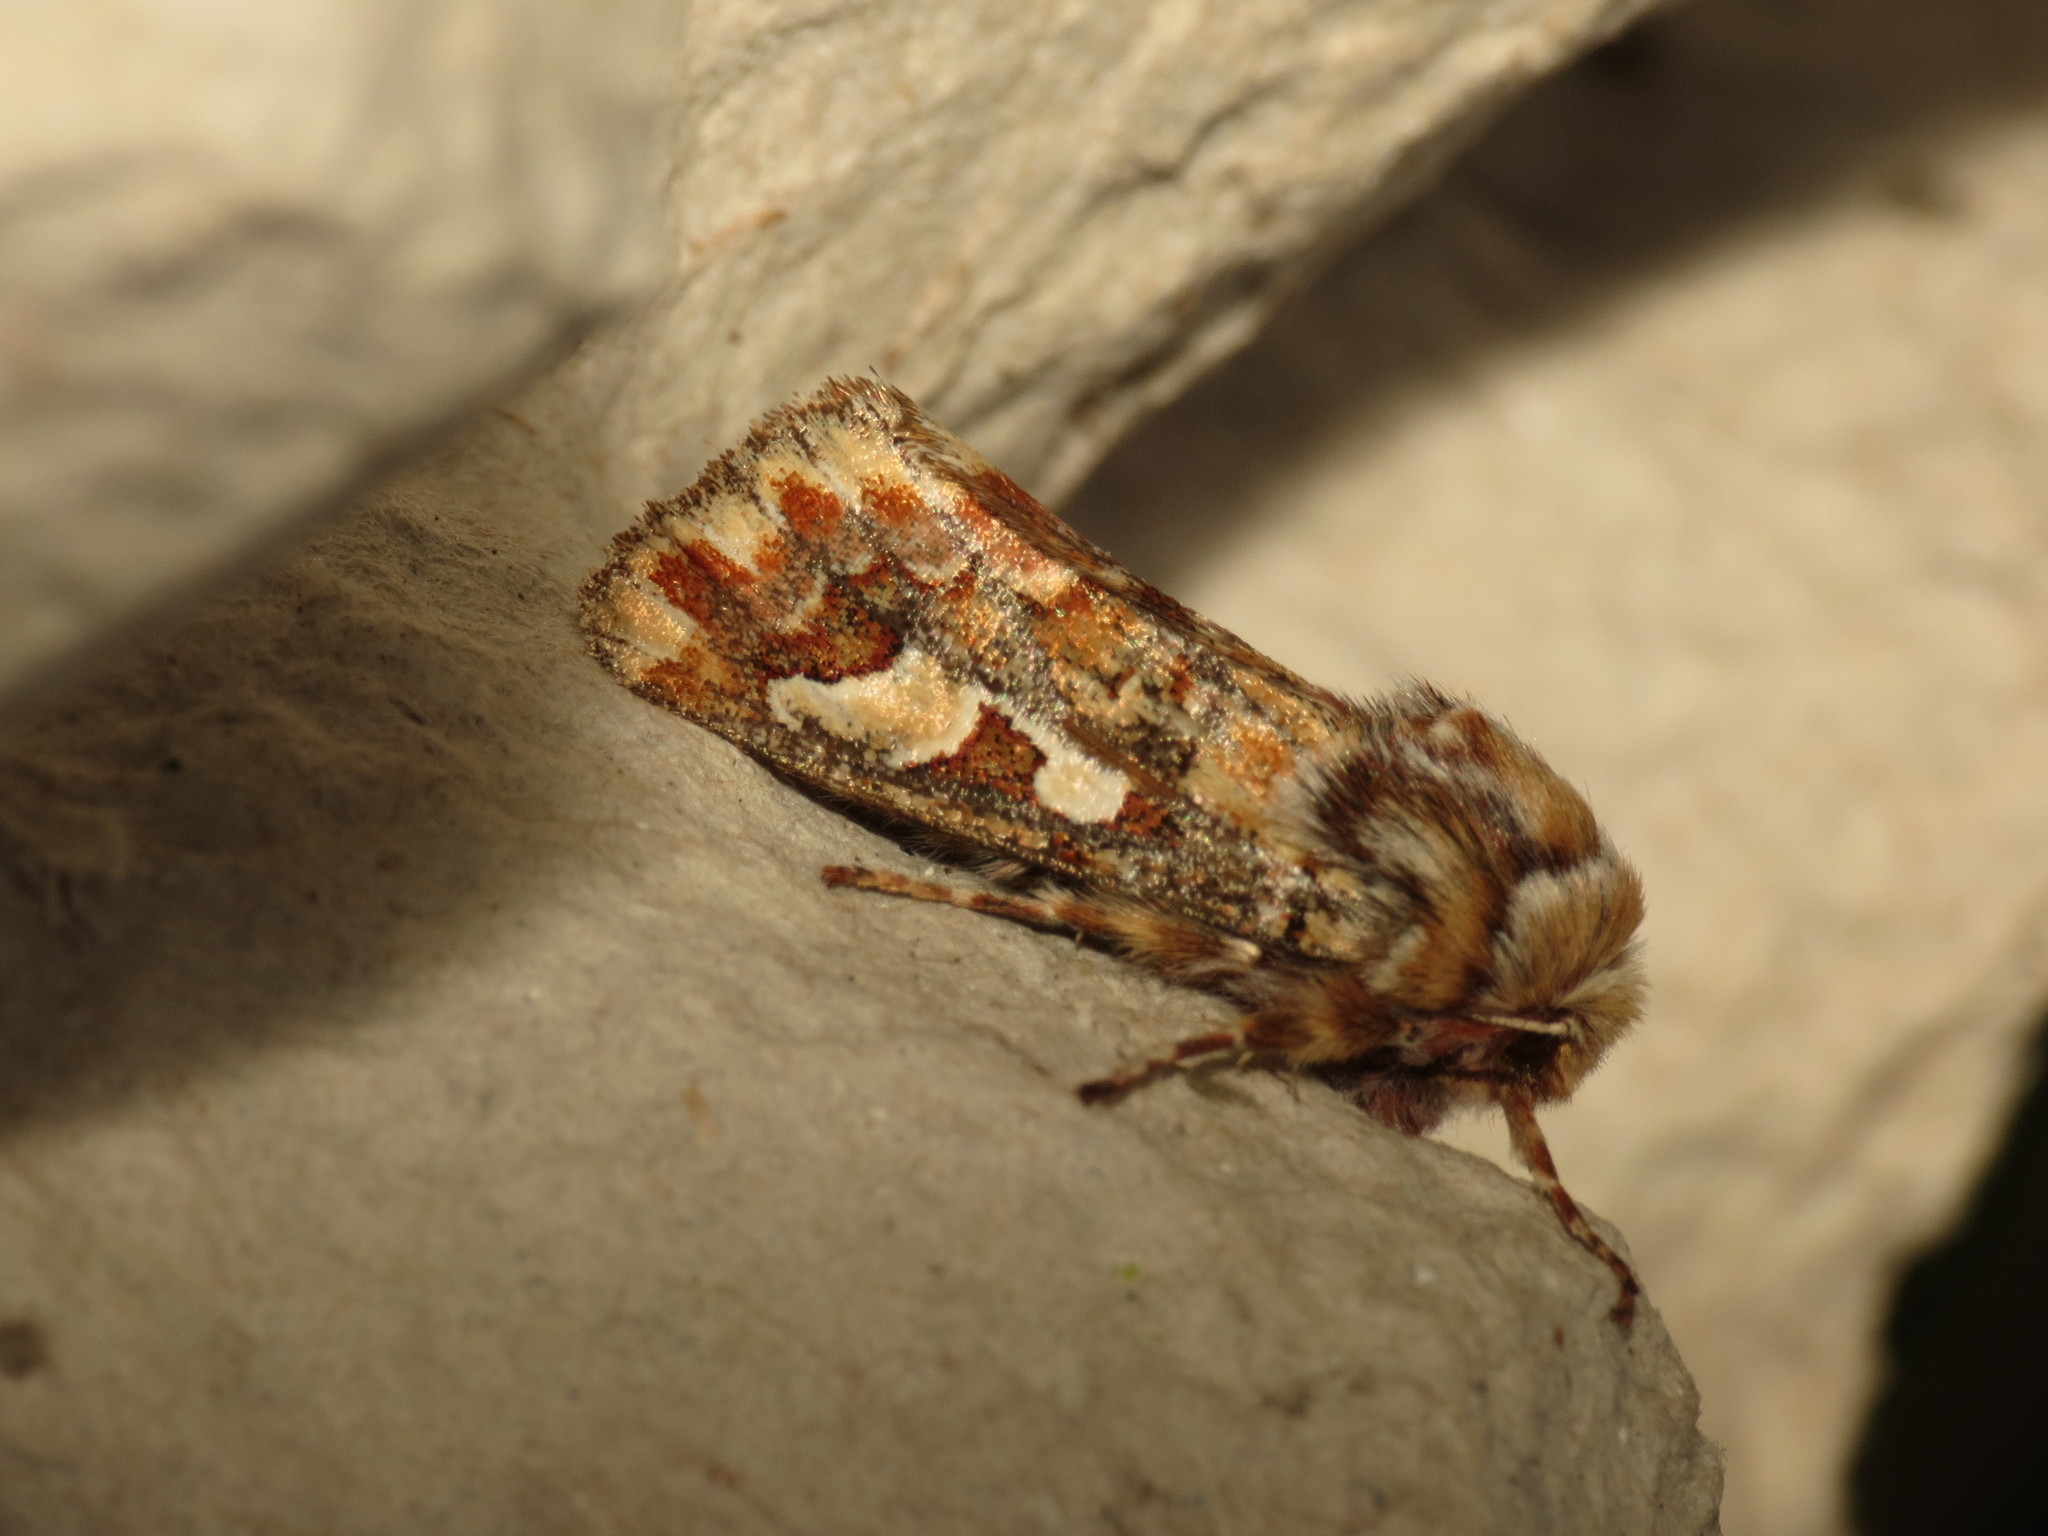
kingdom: Animalia
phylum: Arthropoda
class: Insecta
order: Lepidoptera
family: Noctuidae
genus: Panolis
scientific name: Panolis flammea
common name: Pine beauty
